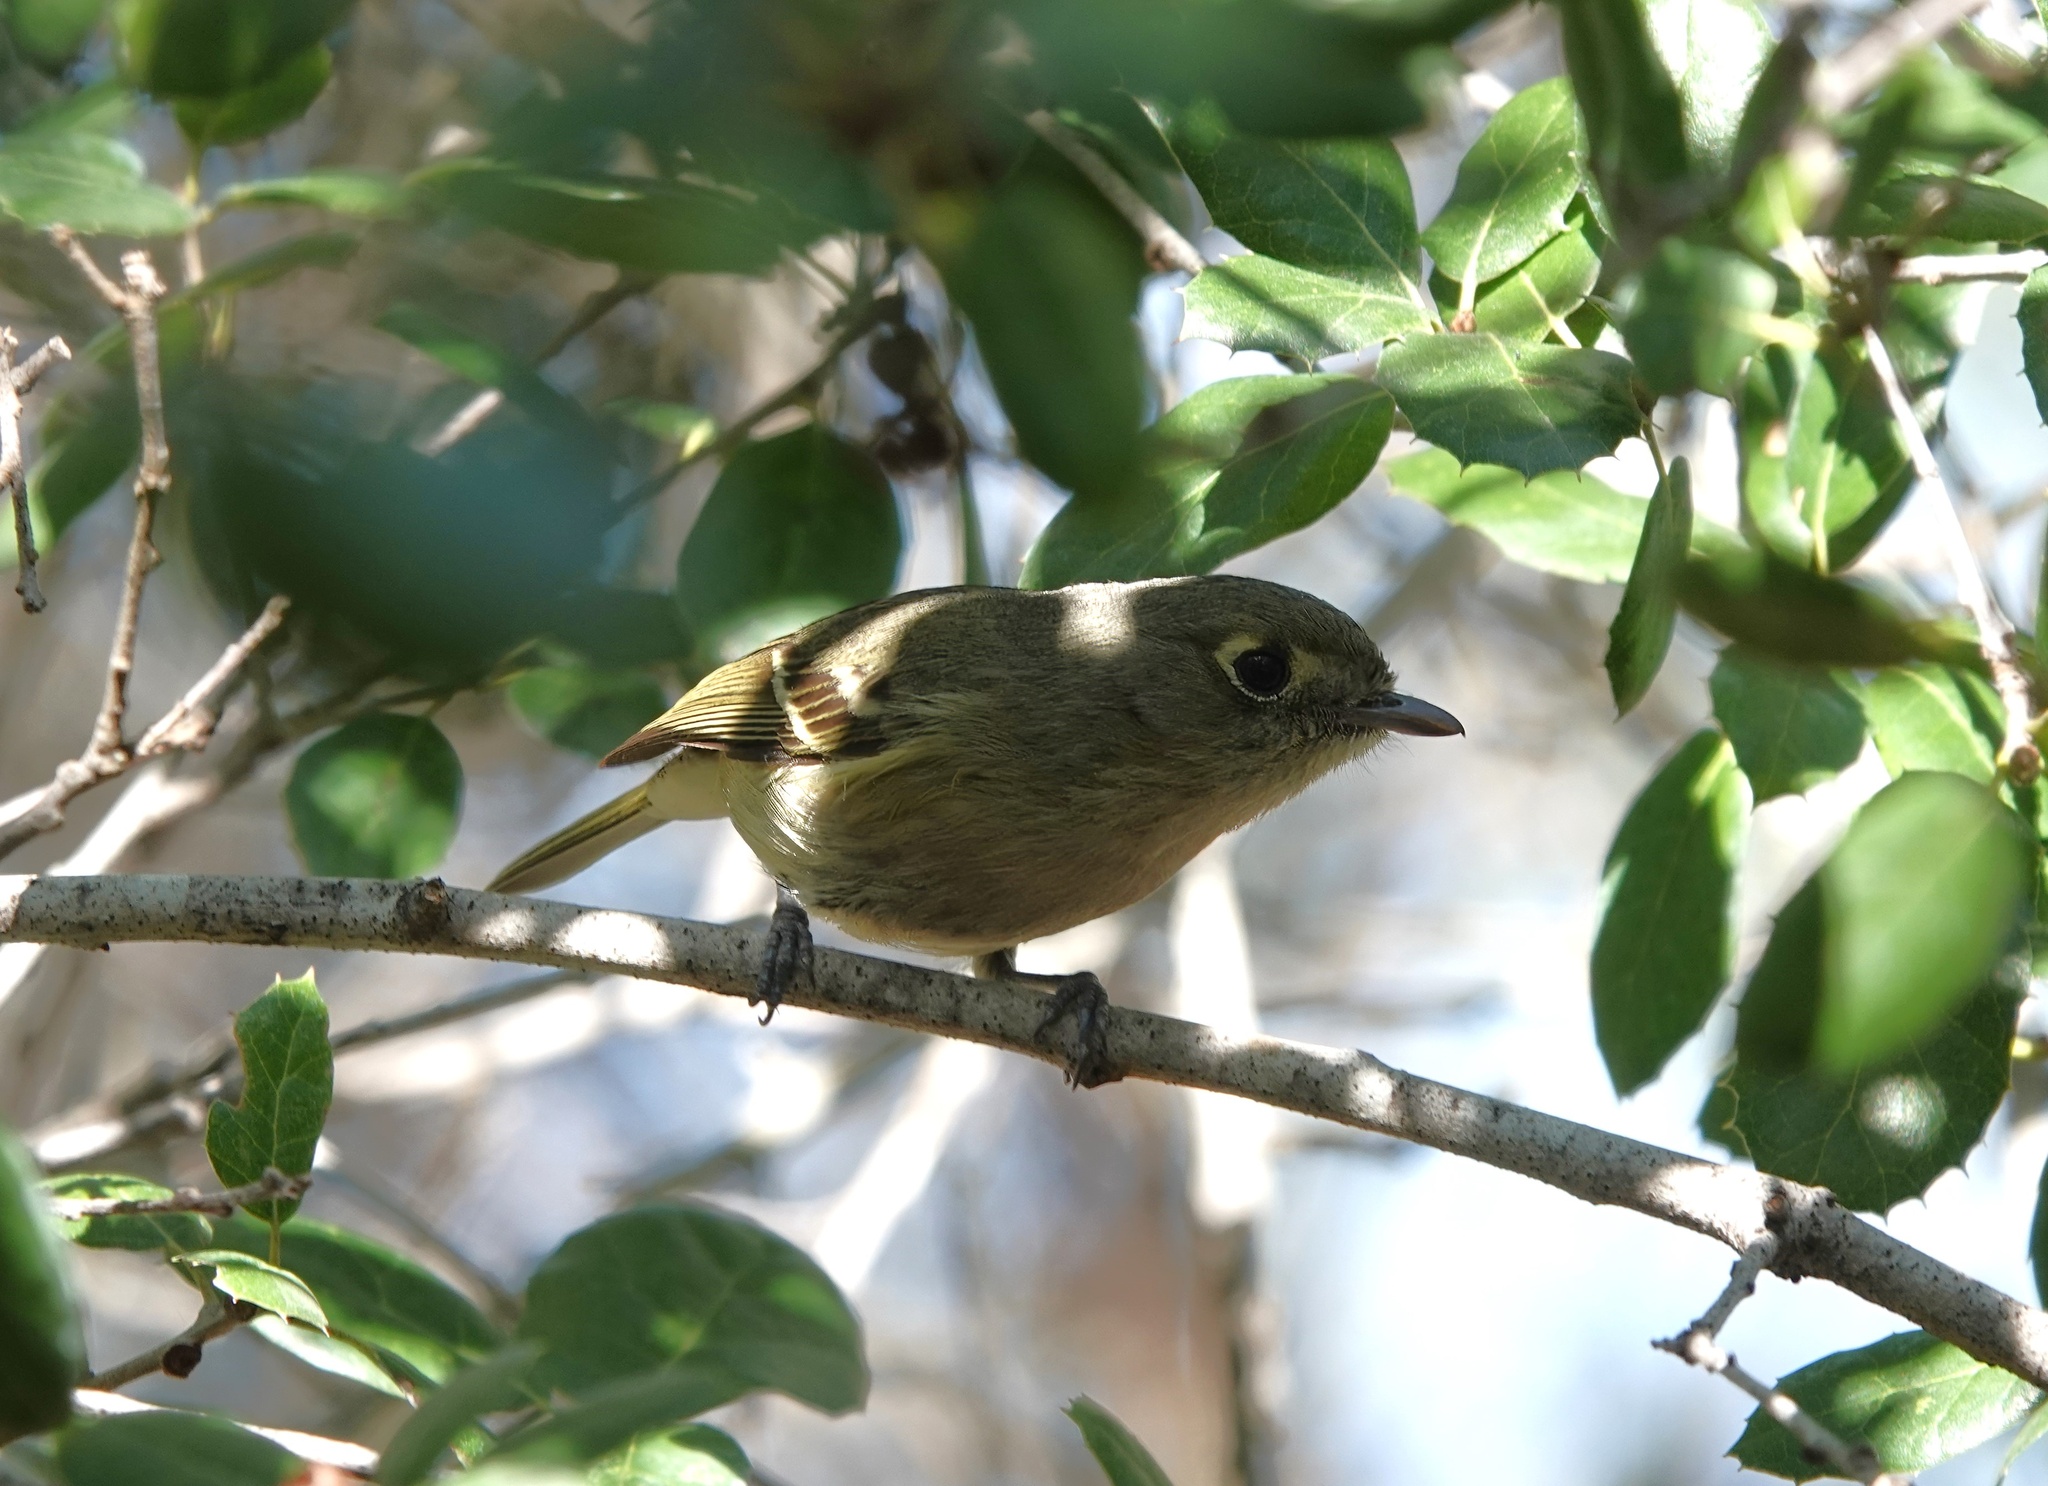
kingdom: Animalia
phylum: Chordata
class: Aves
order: Passeriformes
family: Vireonidae
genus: Vireo
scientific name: Vireo huttoni
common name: Hutton's vireo
